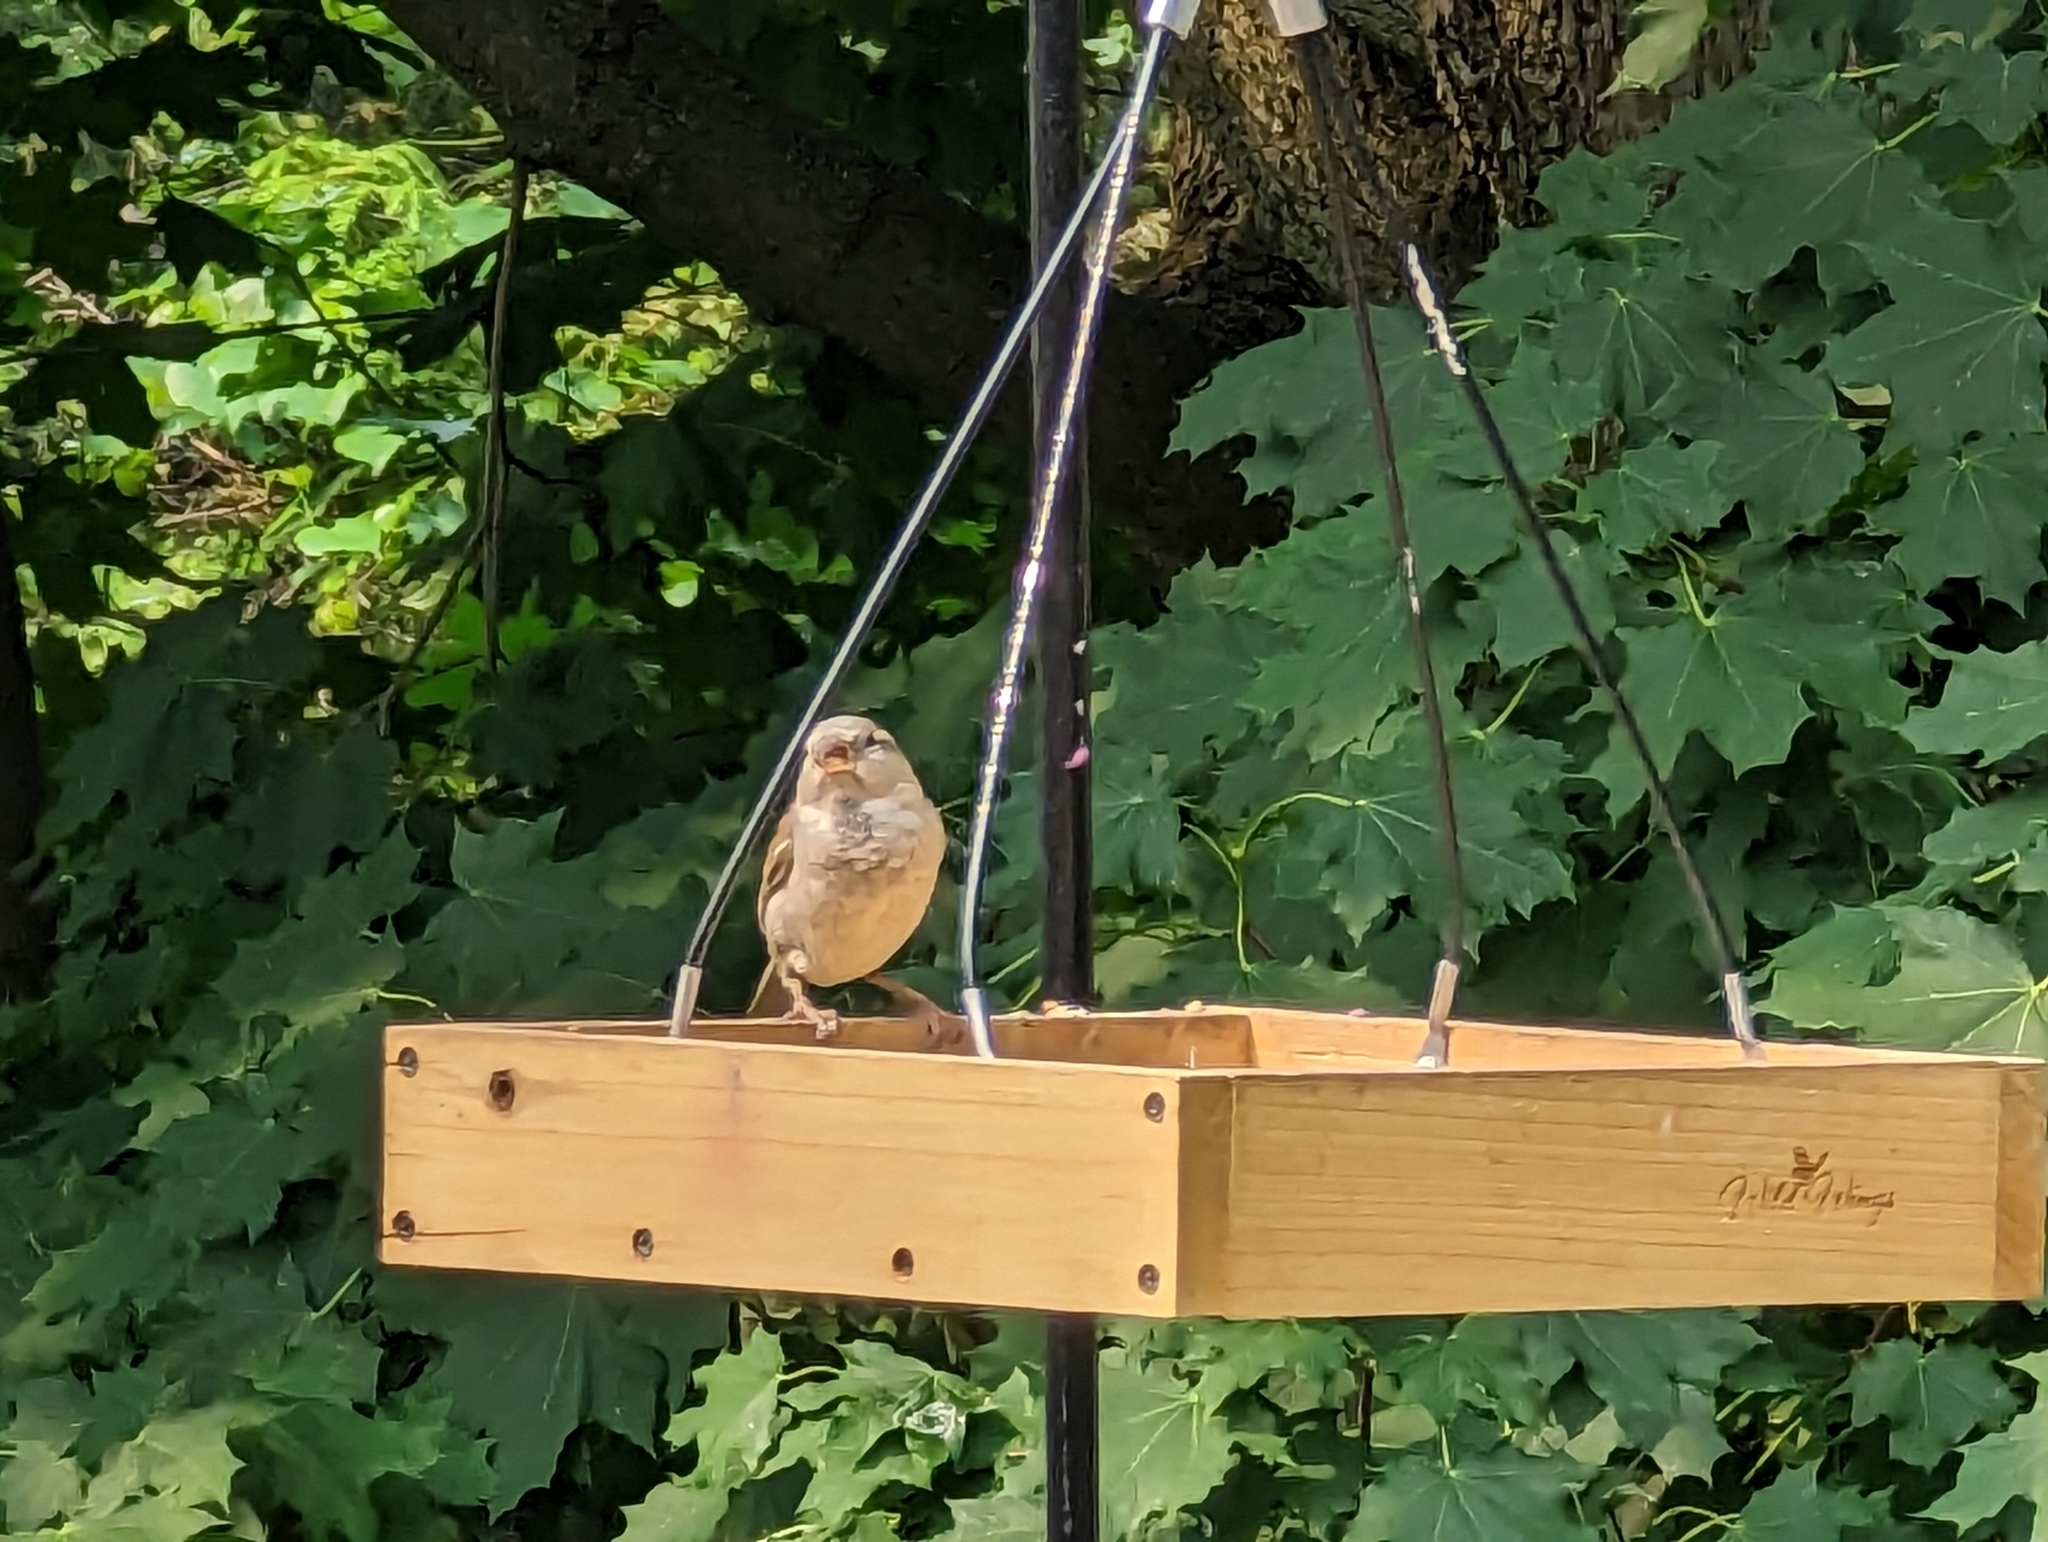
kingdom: Animalia
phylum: Chordata
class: Aves
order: Passeriformes
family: Passeridae
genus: Passer
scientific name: Passer domesticus
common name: House sparrow
